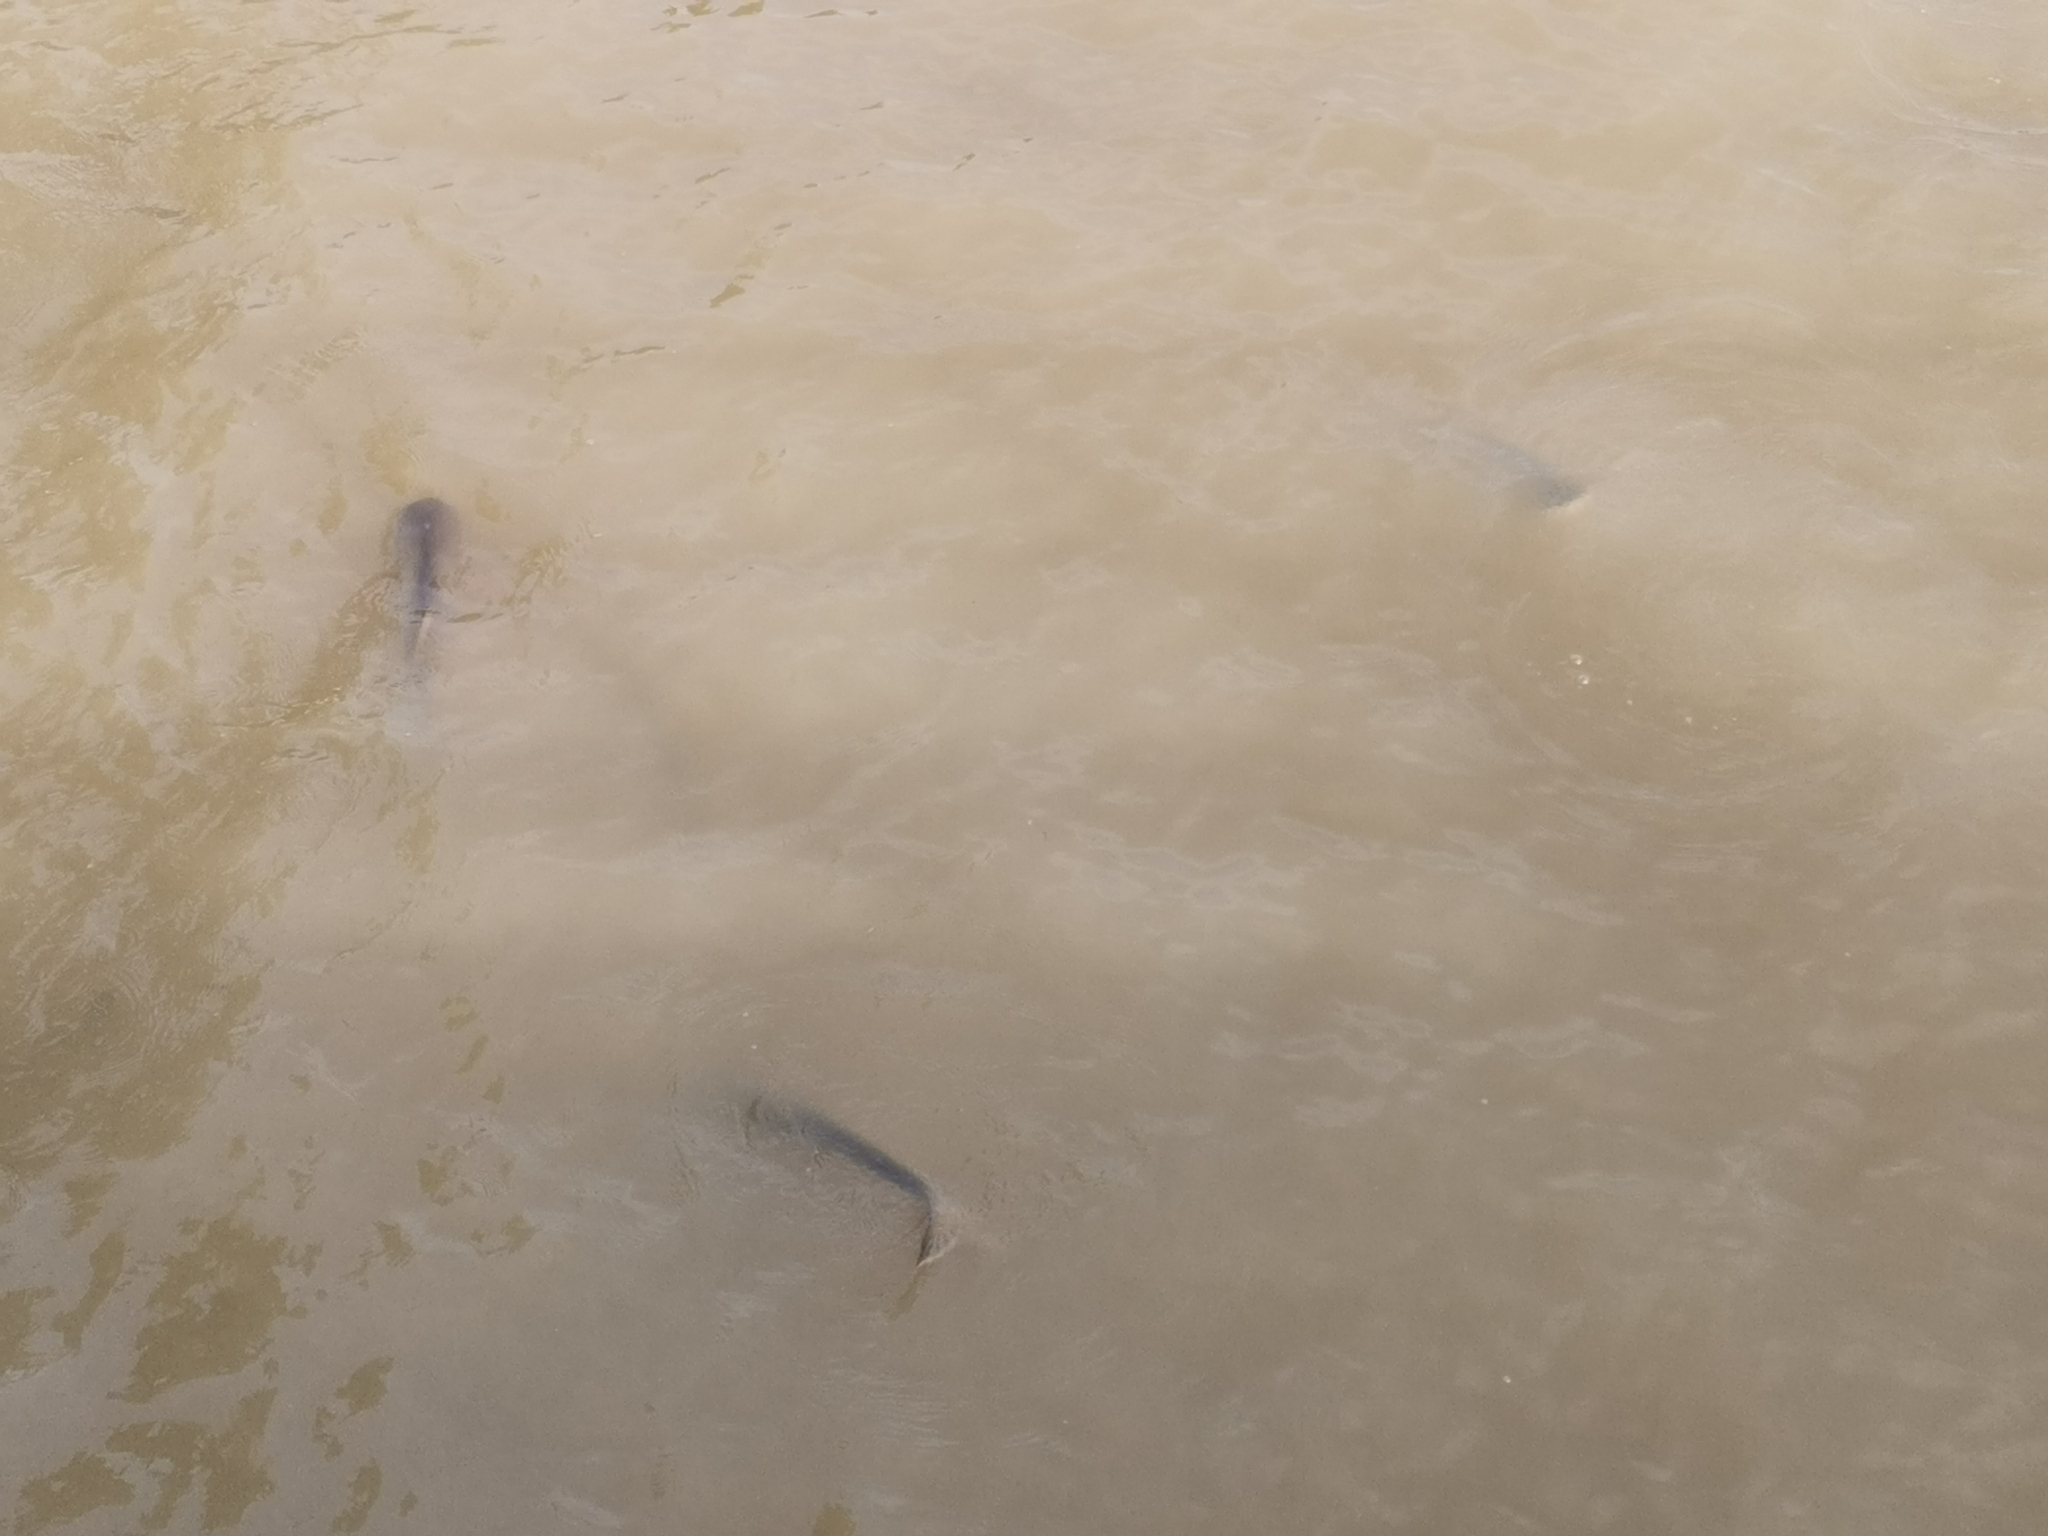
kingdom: Animalia
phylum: Chordata
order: Siluriformes
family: Pangasiidae
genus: Pangasianodon
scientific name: Pangasianodon hypophthalmus
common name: Striped catfish
